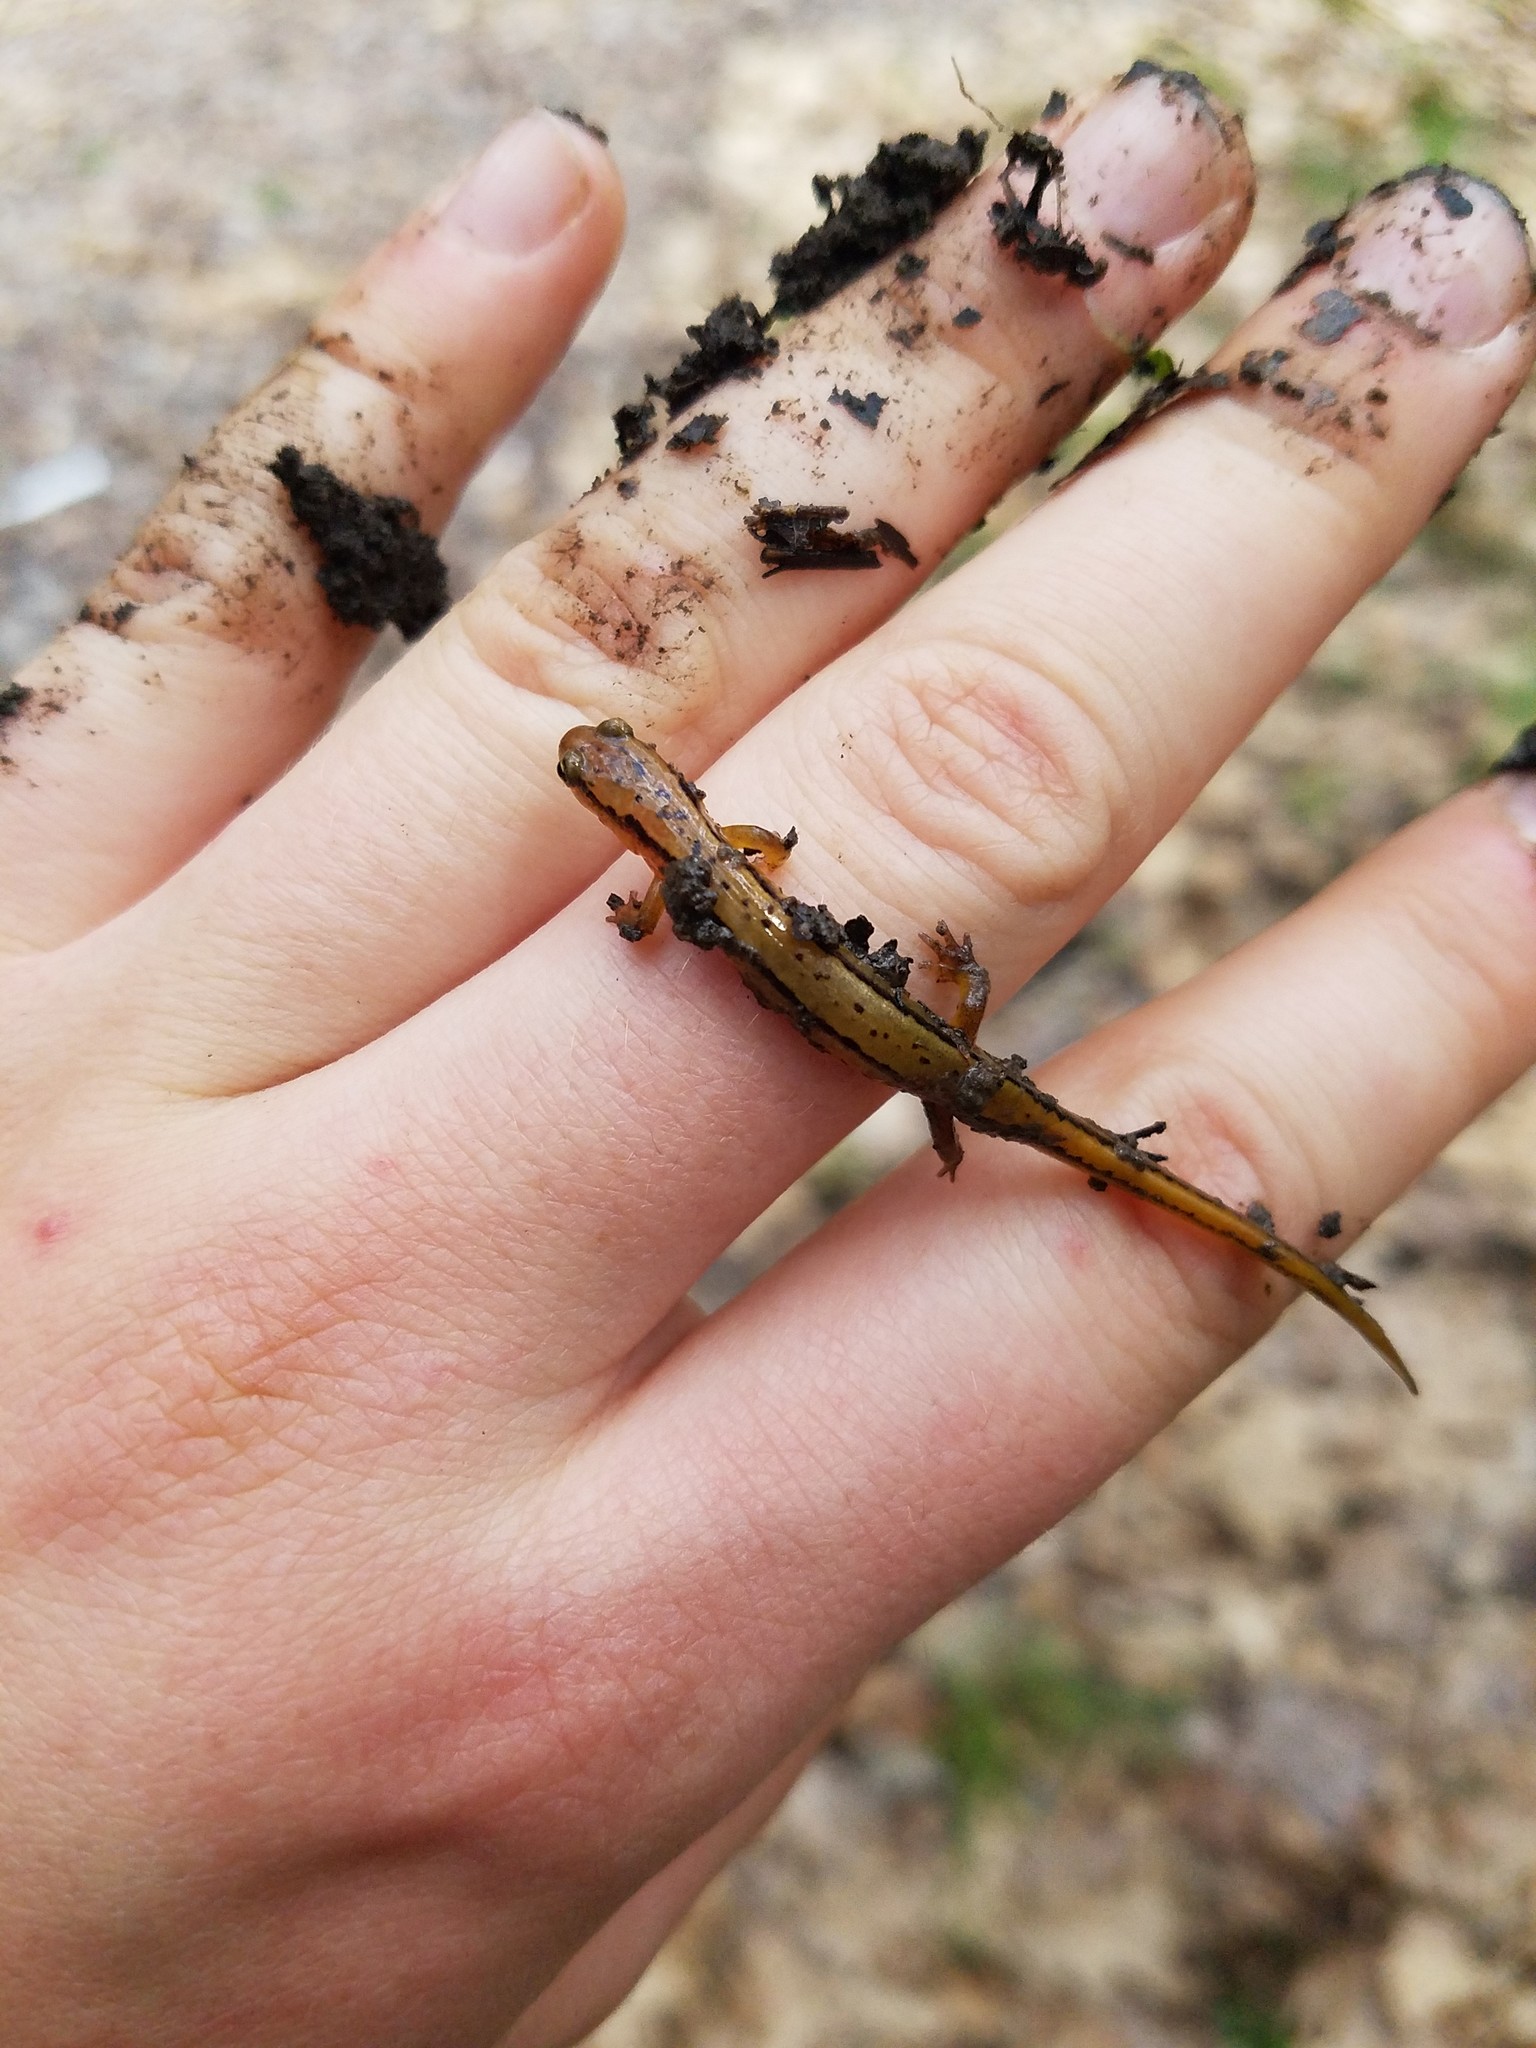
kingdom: Animalia
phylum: Chordata
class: Amphibia
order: Caudata
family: Plethodontidae
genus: Eurycea
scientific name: Eurycea bislineata
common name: Northern two-lined salamander
